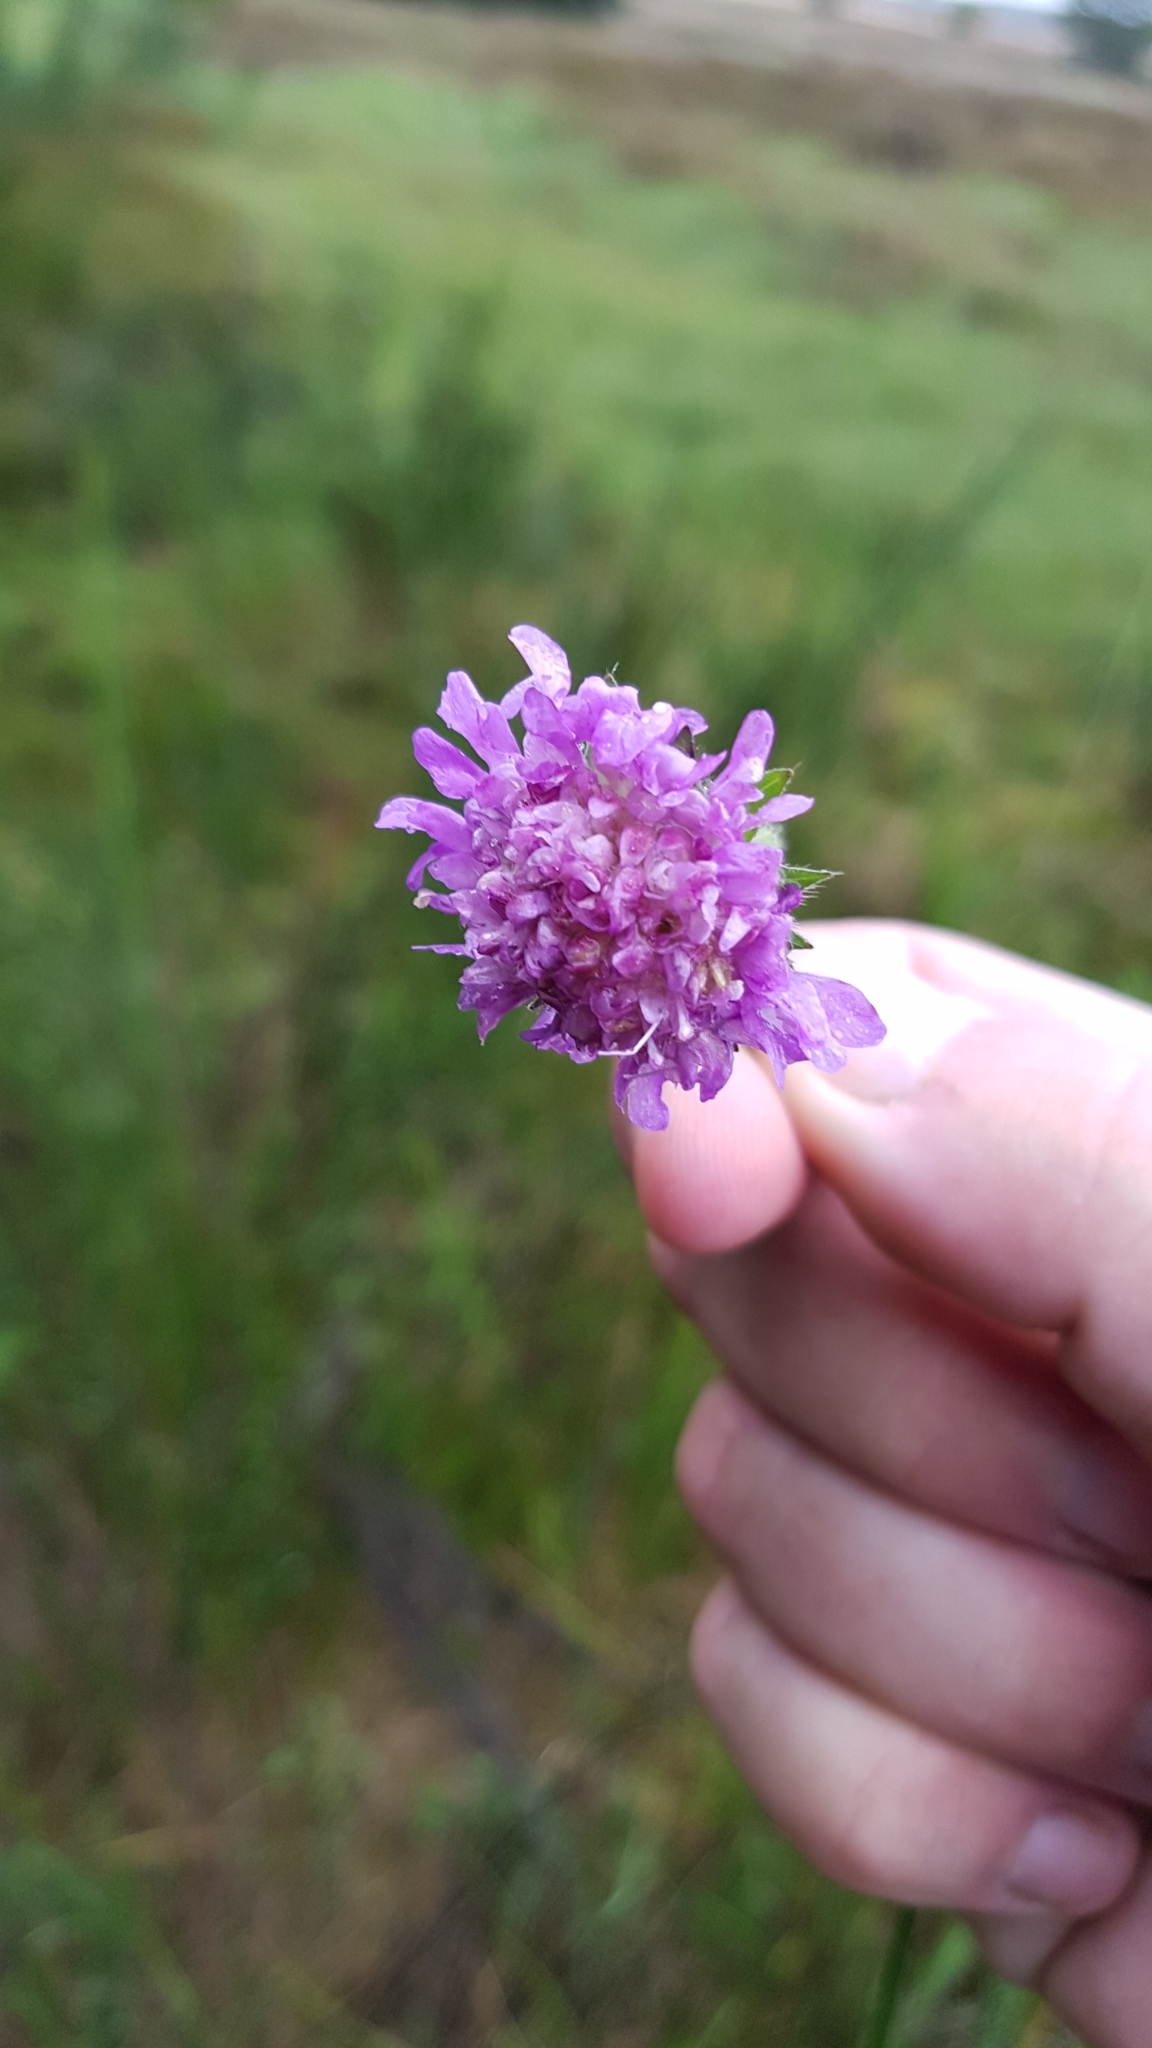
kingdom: Plantae
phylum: Tracheophyta
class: Magnoliopsida
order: Dipsacales
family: Caprifoliaceae
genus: Knautia
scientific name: Knautia arvensis
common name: Field scabiosa
